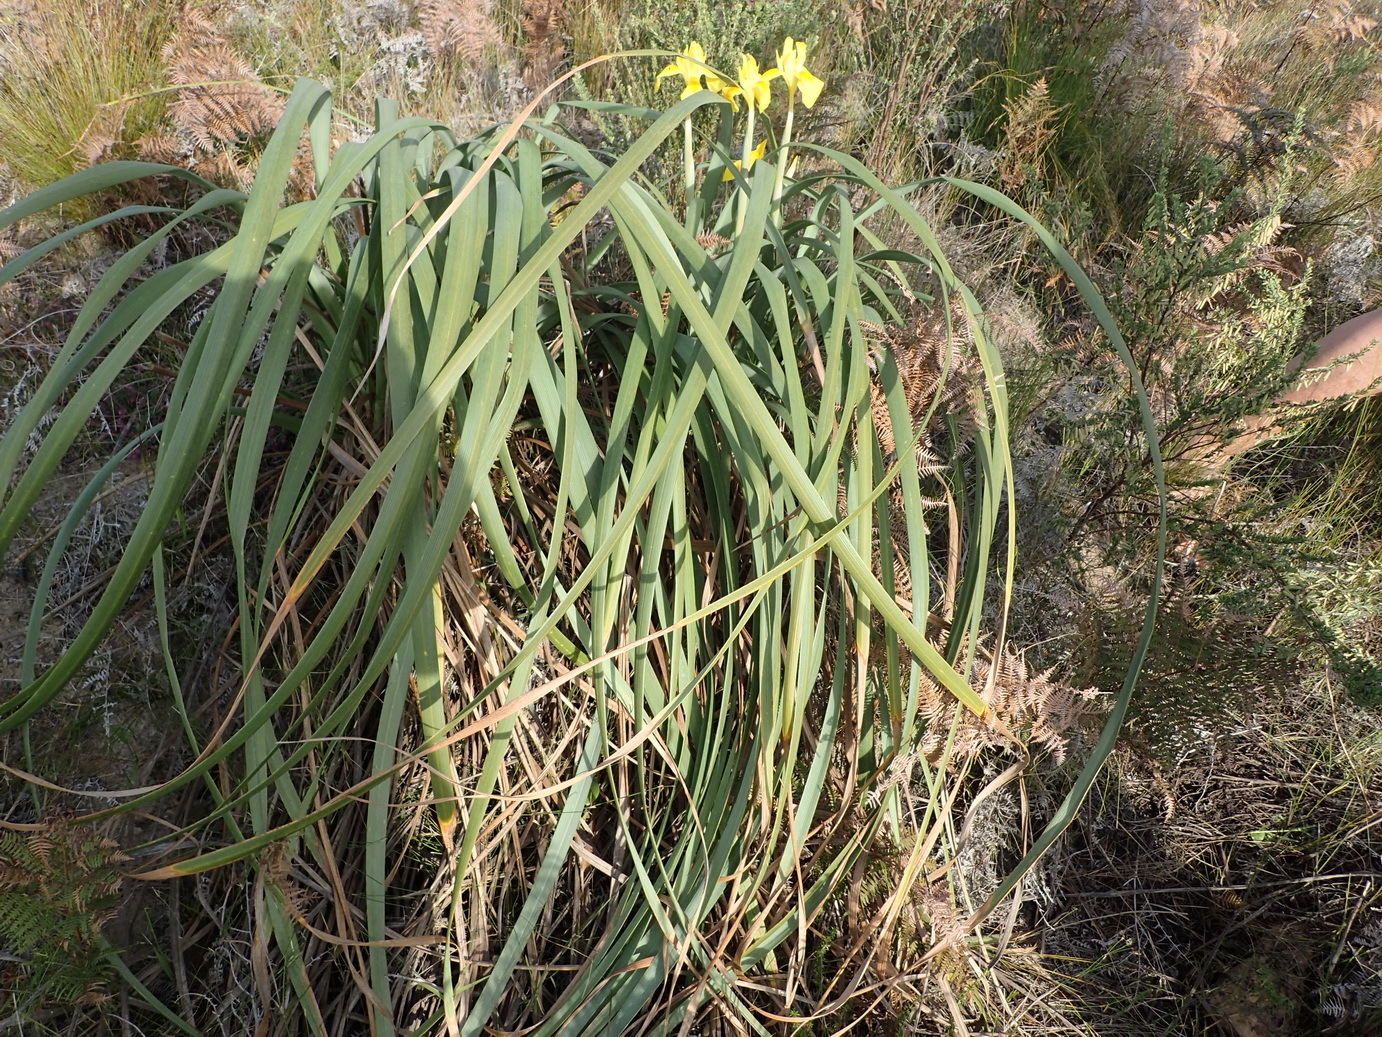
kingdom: Plantae
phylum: Tracheophyta
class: Liliopsida
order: Asparagales
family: Iridaceae
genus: Moraea
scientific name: Moraea spathulata
